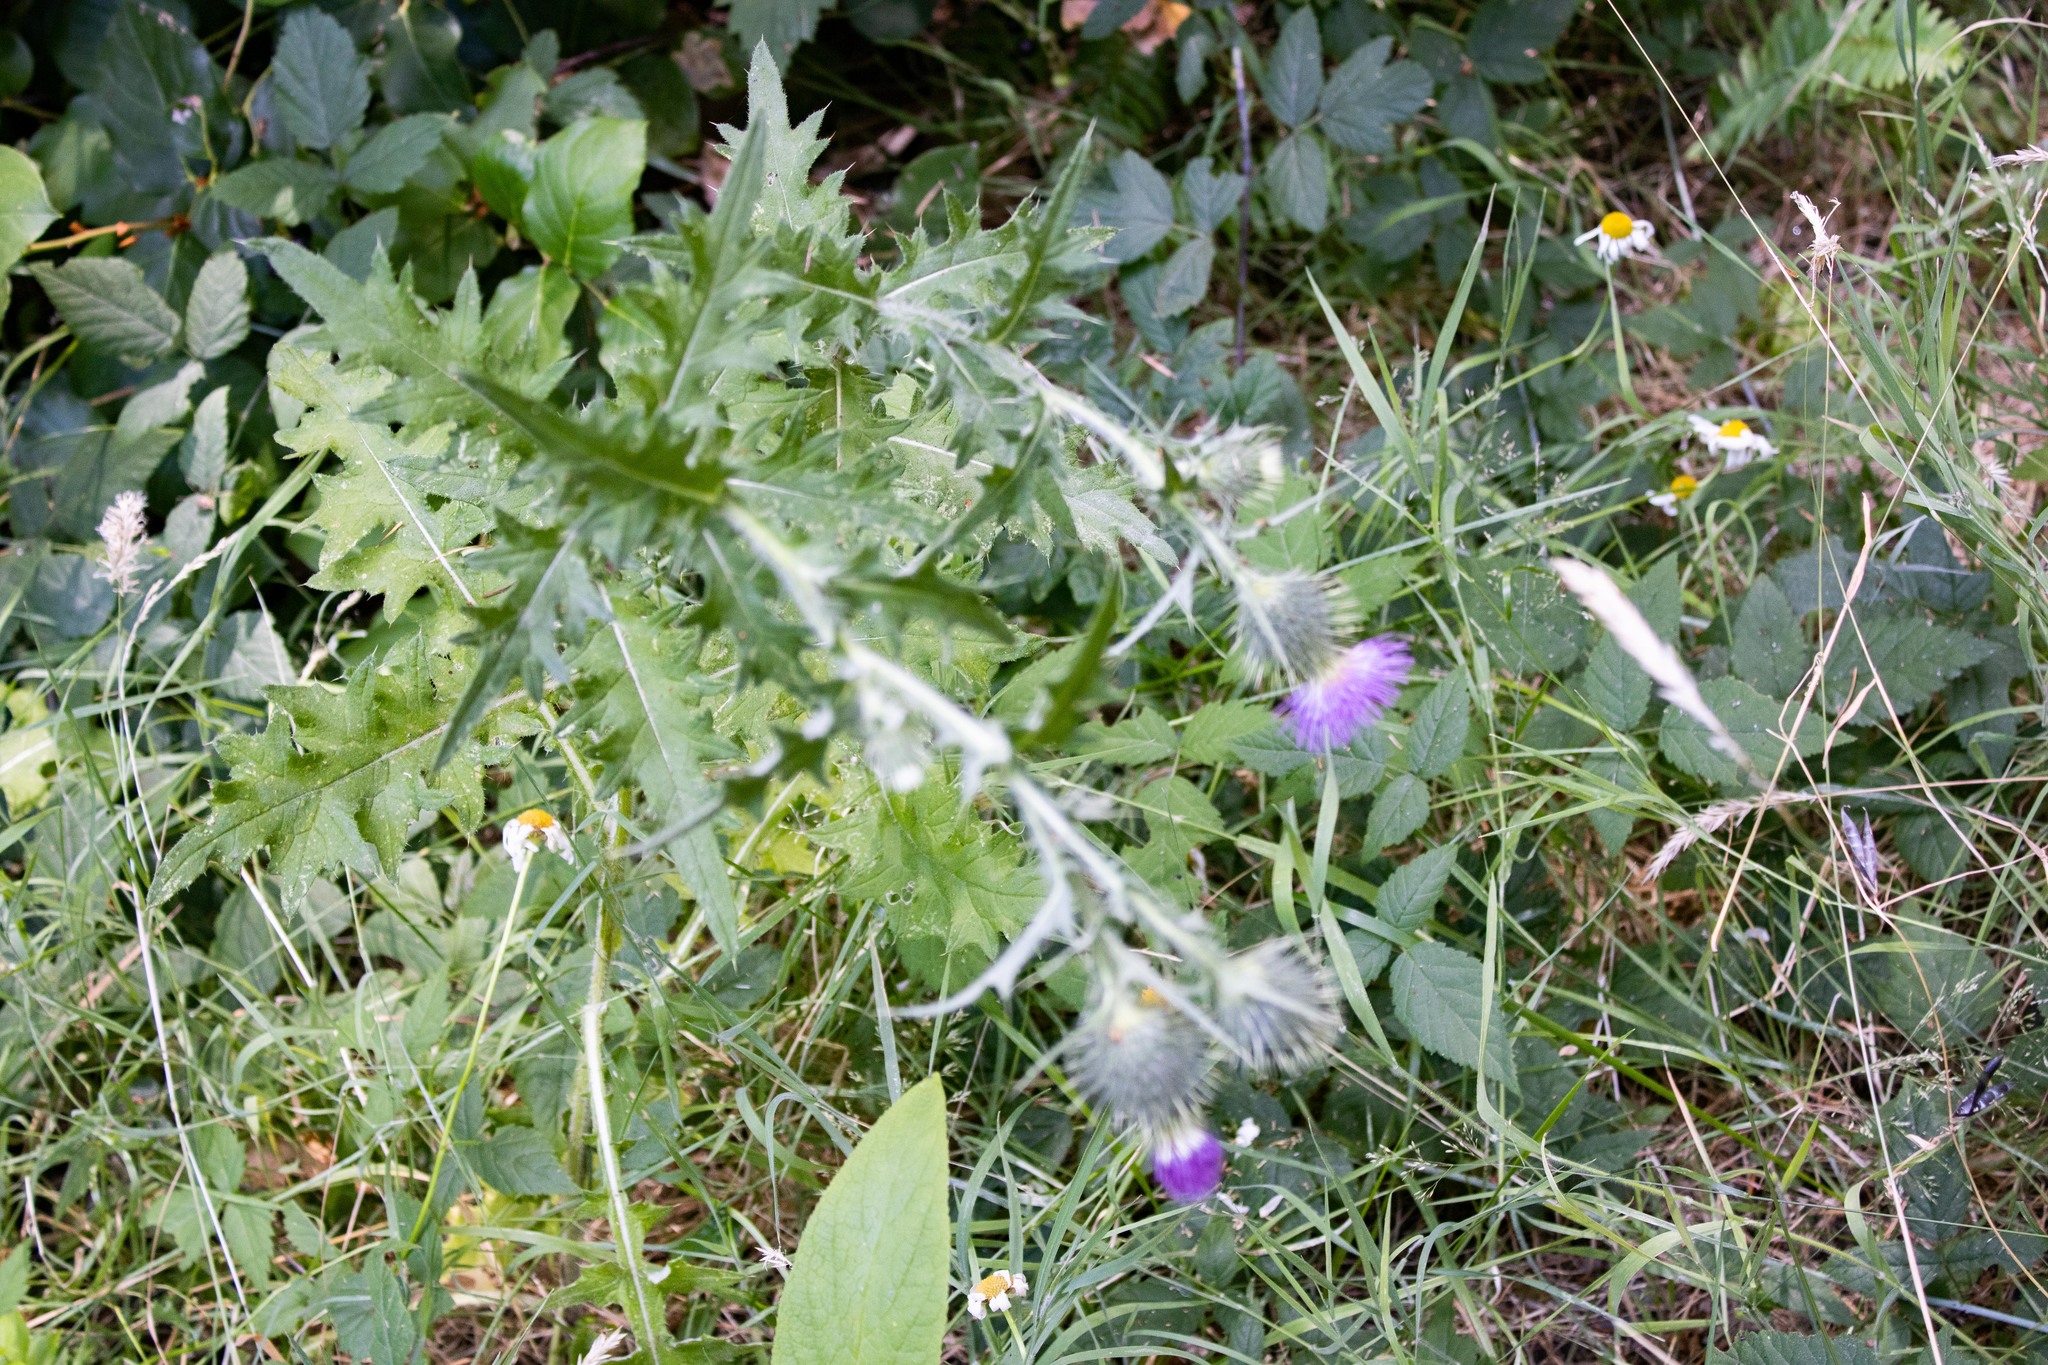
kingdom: Plantae
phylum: Tracheophyta
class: Magnoliopsida
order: Asterales
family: Asteraceae
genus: Cirsium
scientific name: Cirsium vulgare
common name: Bull thistle
